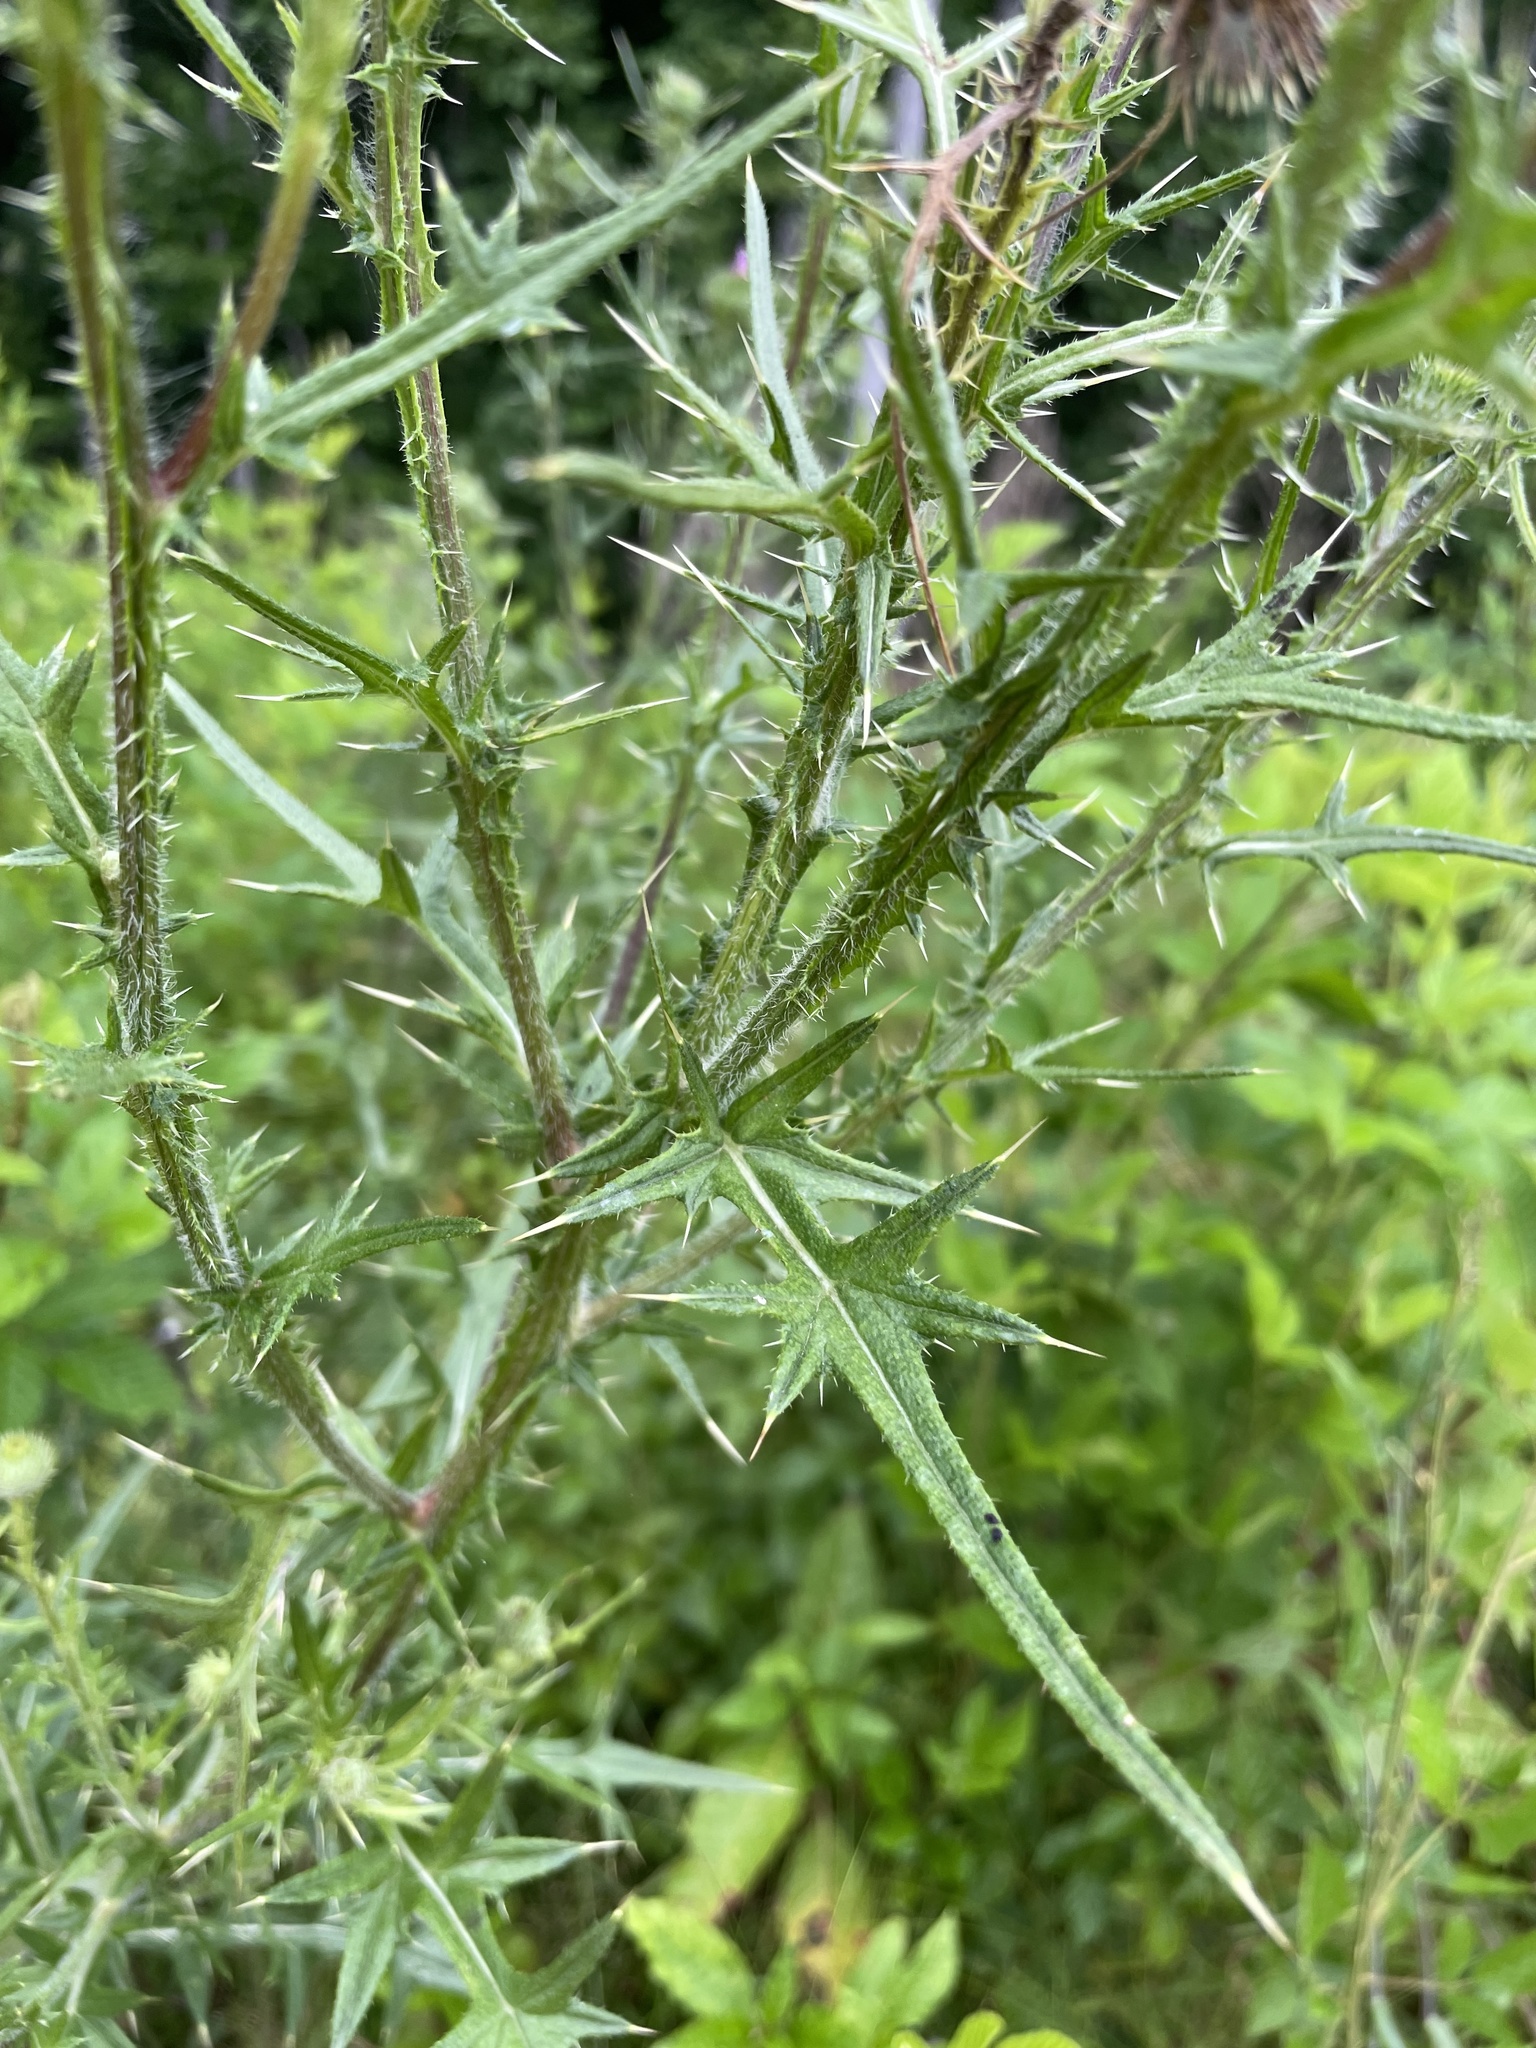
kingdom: Plantae
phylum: Tracheophyta
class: Magnoliopsida
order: Asterales
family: Asteraceae
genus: Cirsium
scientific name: Cirsium vulgare
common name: Bull thistle
